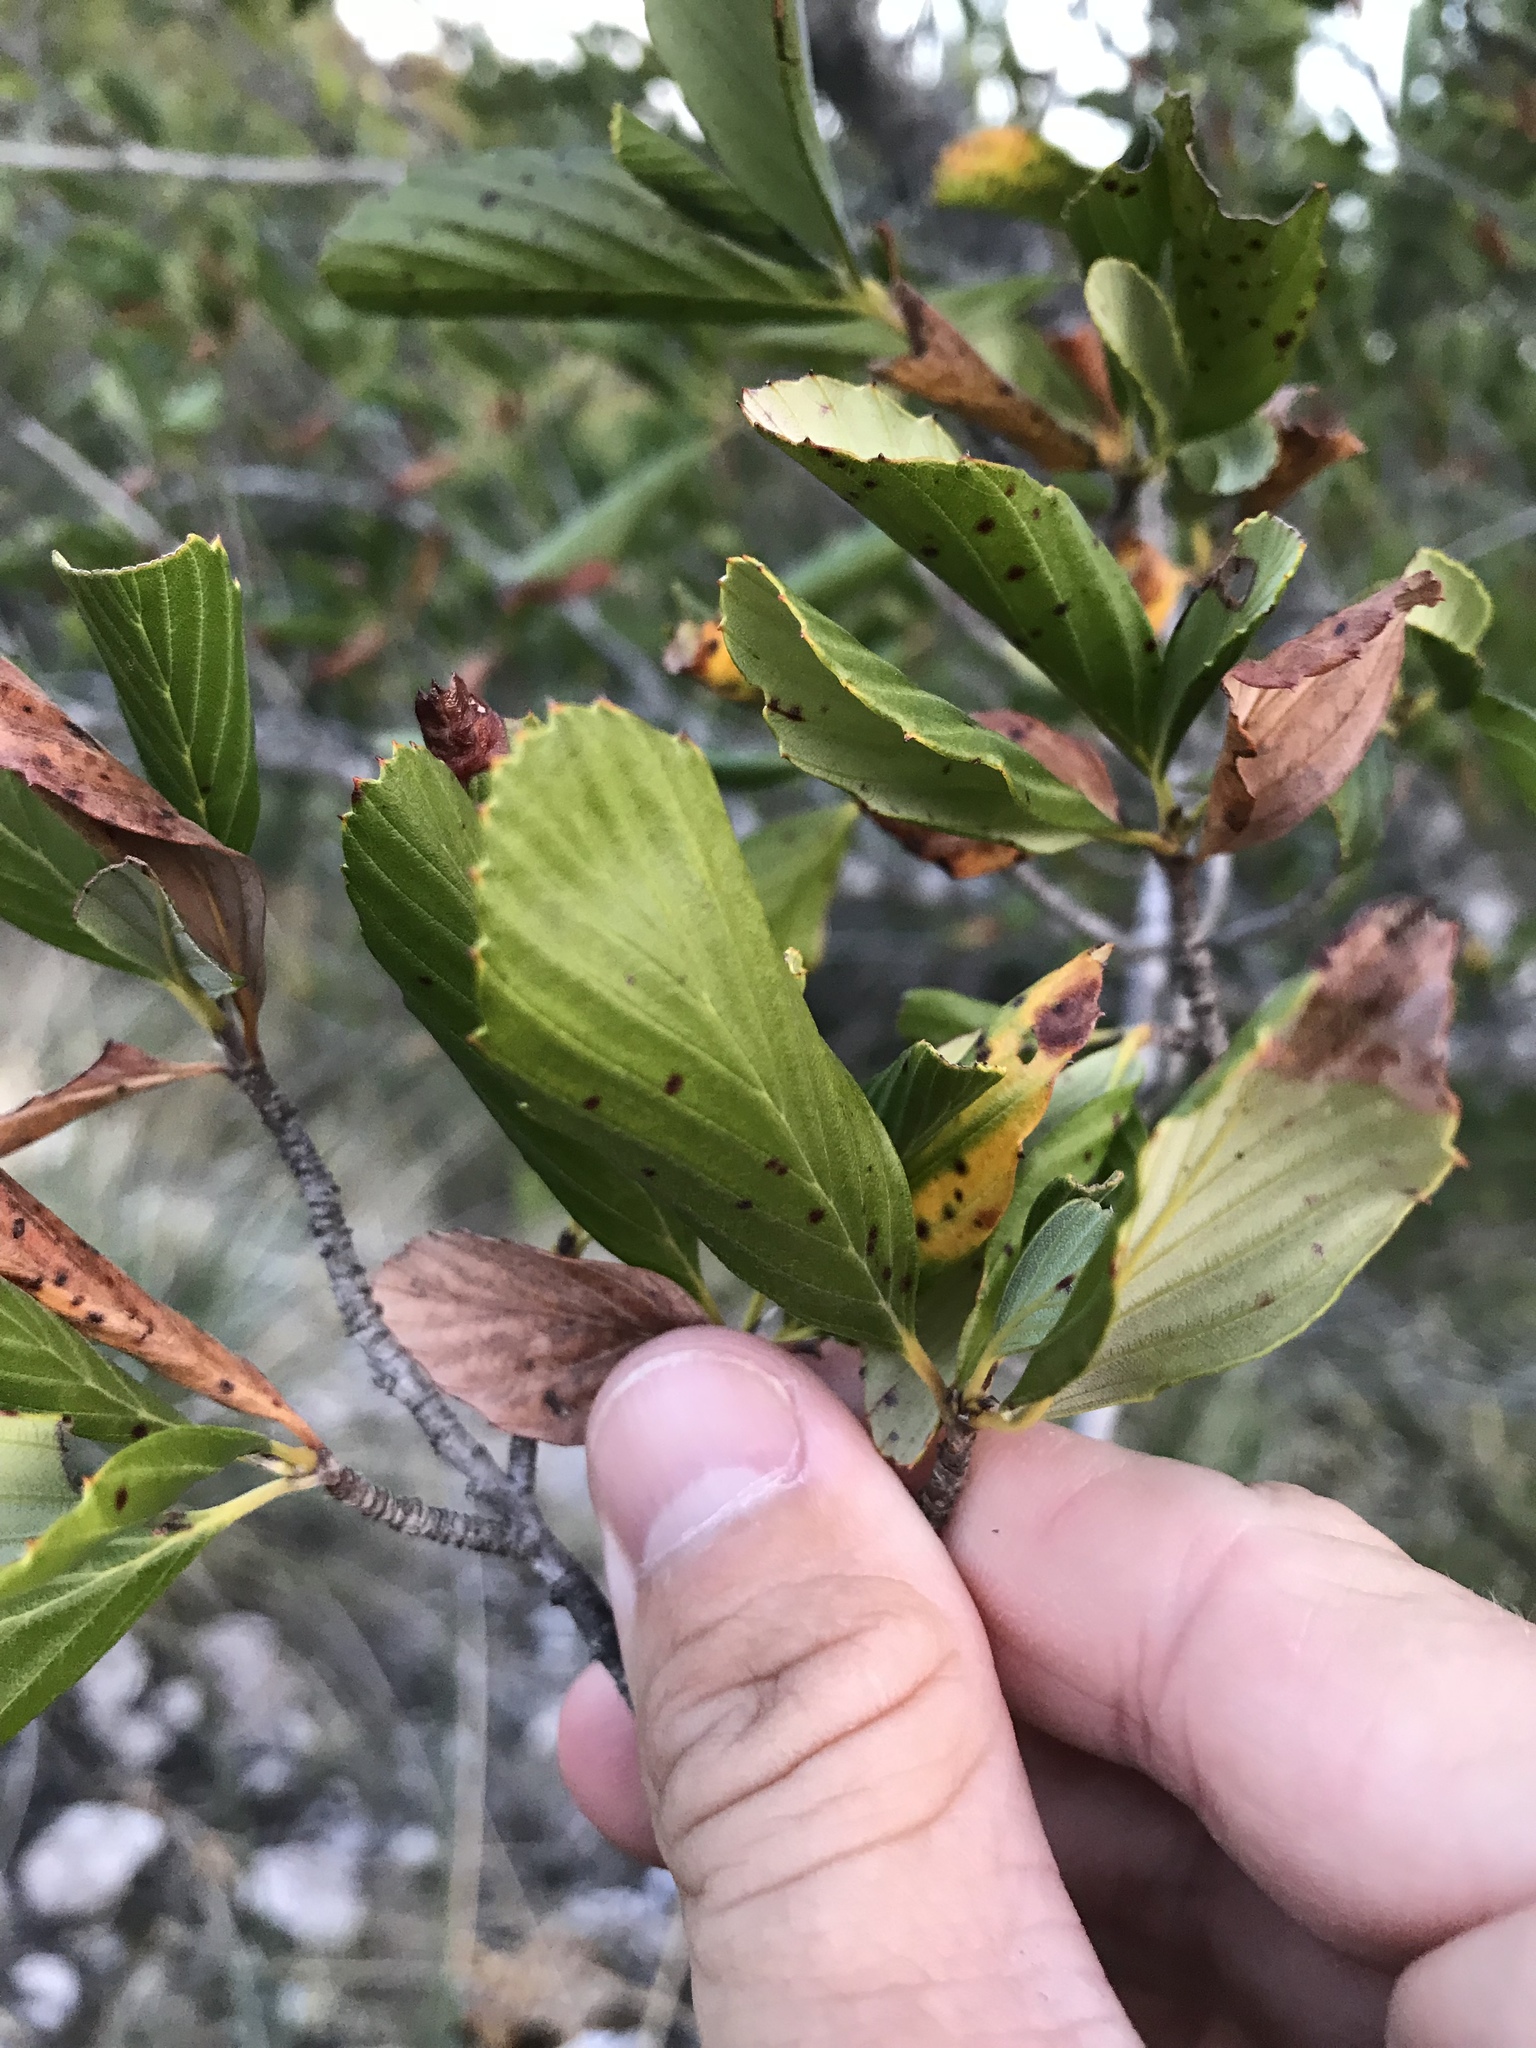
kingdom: Plantae
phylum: Tracheophyta
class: Magnoliopsida
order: Rosales
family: Rosaceae
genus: Cercocarpus
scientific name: Cercocarpus montanus
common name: Alder-leaf cercocarpus
